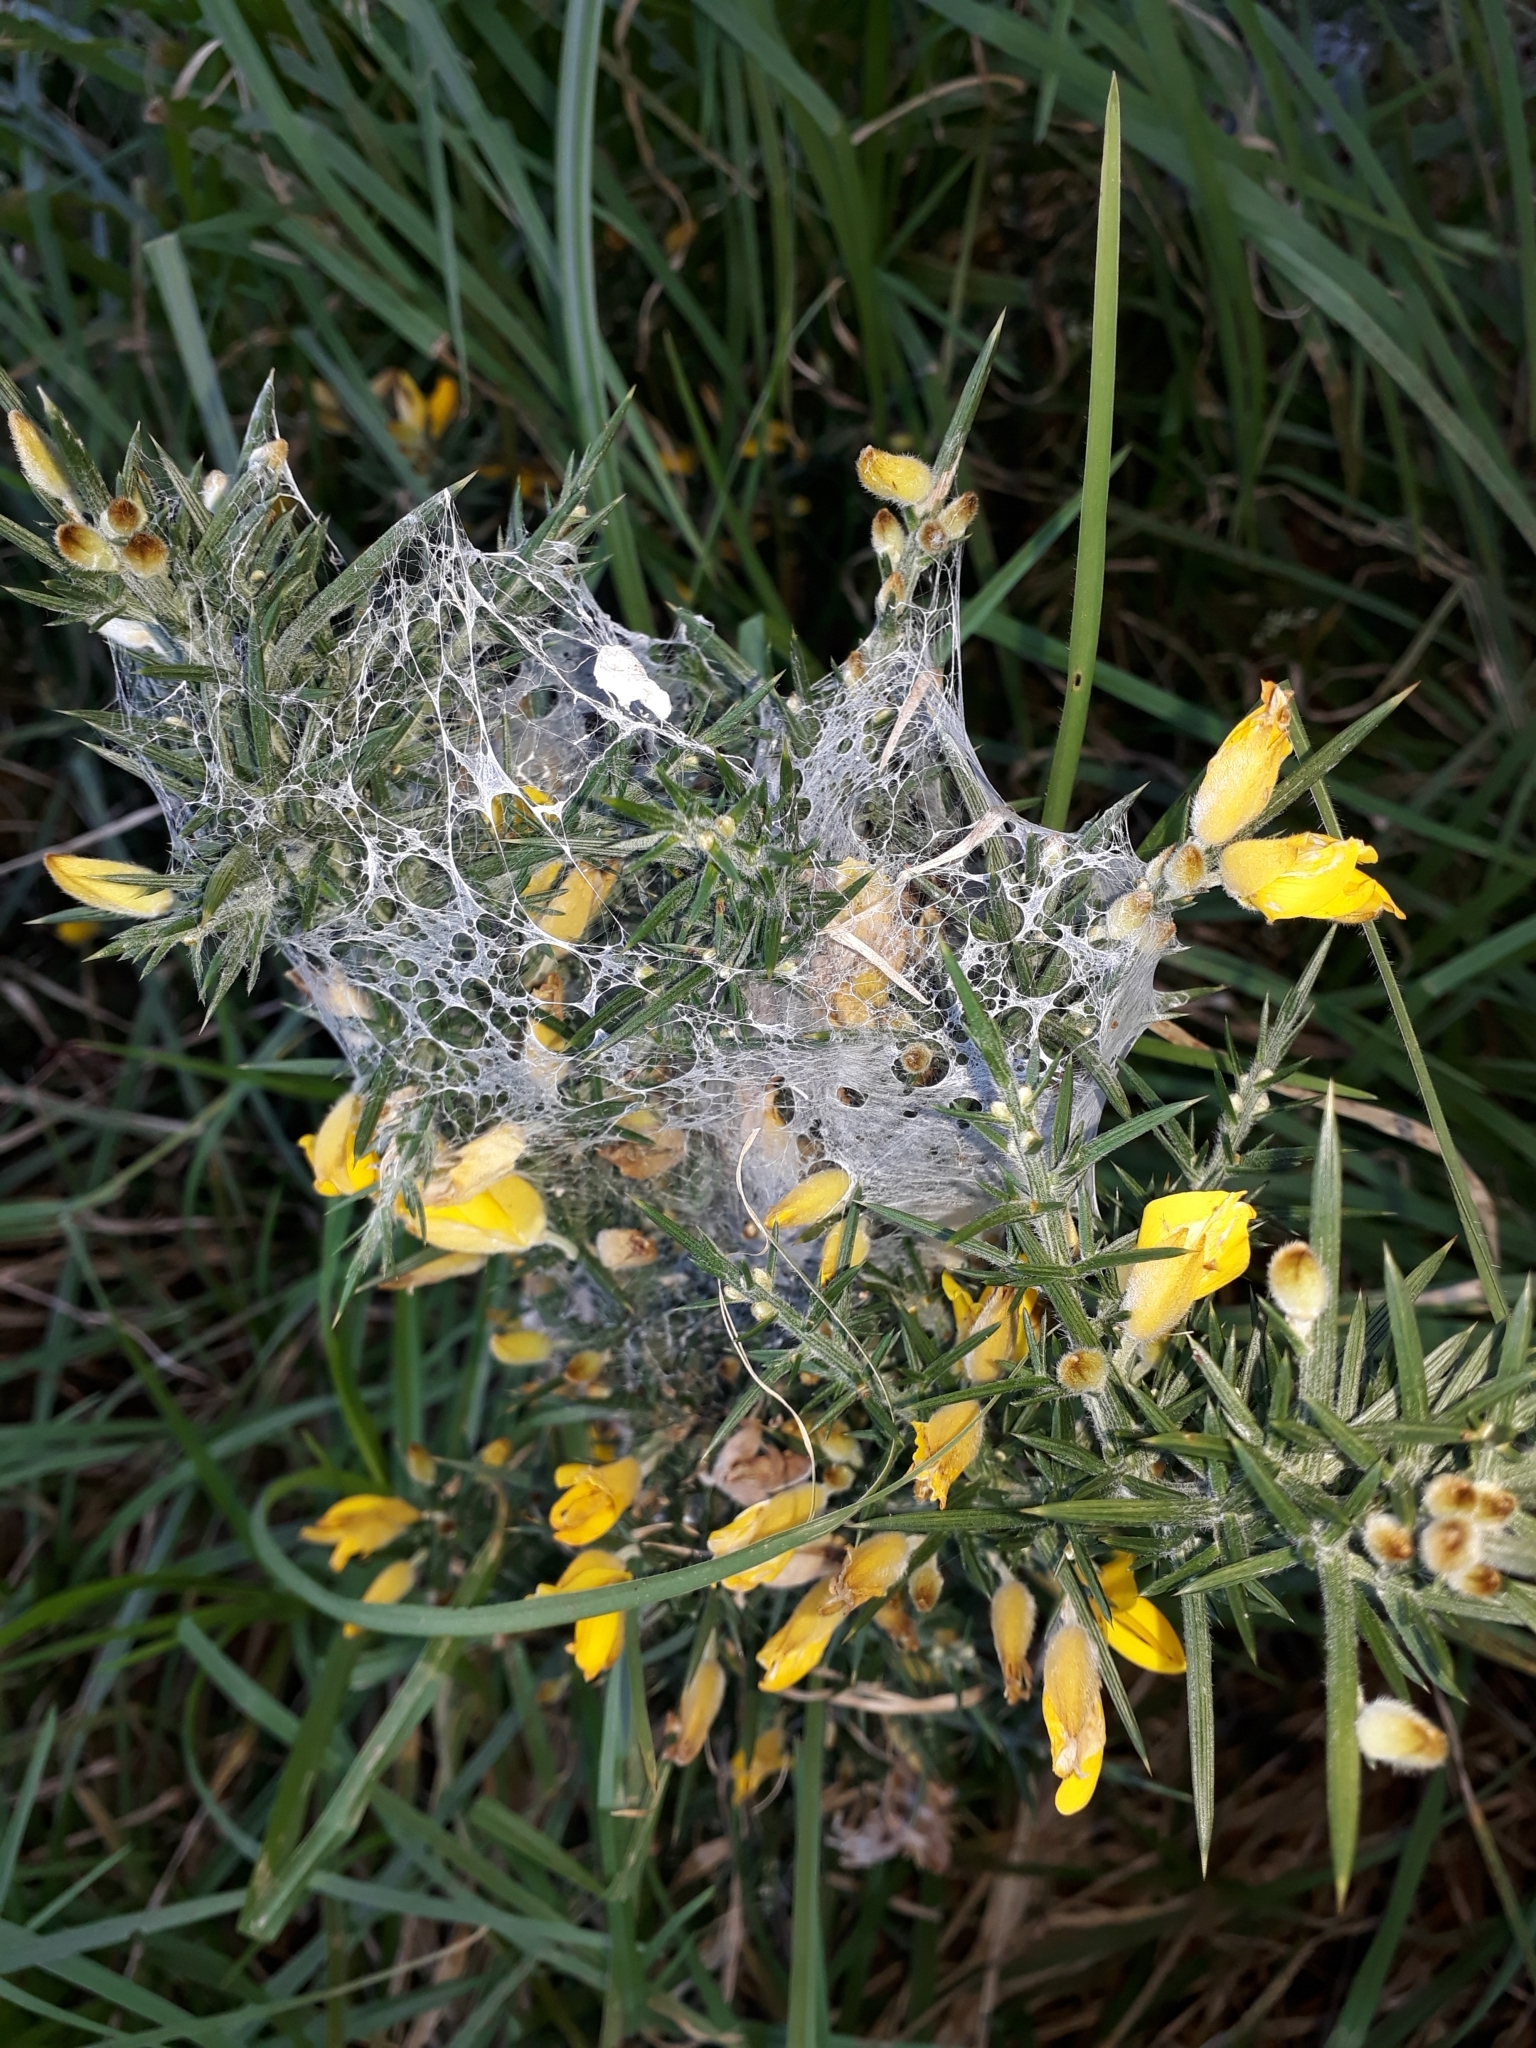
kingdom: Animalia
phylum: Arthropoda
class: Arachnida
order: Araneae
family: Pisauridae
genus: Dolomedes
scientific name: Dolomedes minor
